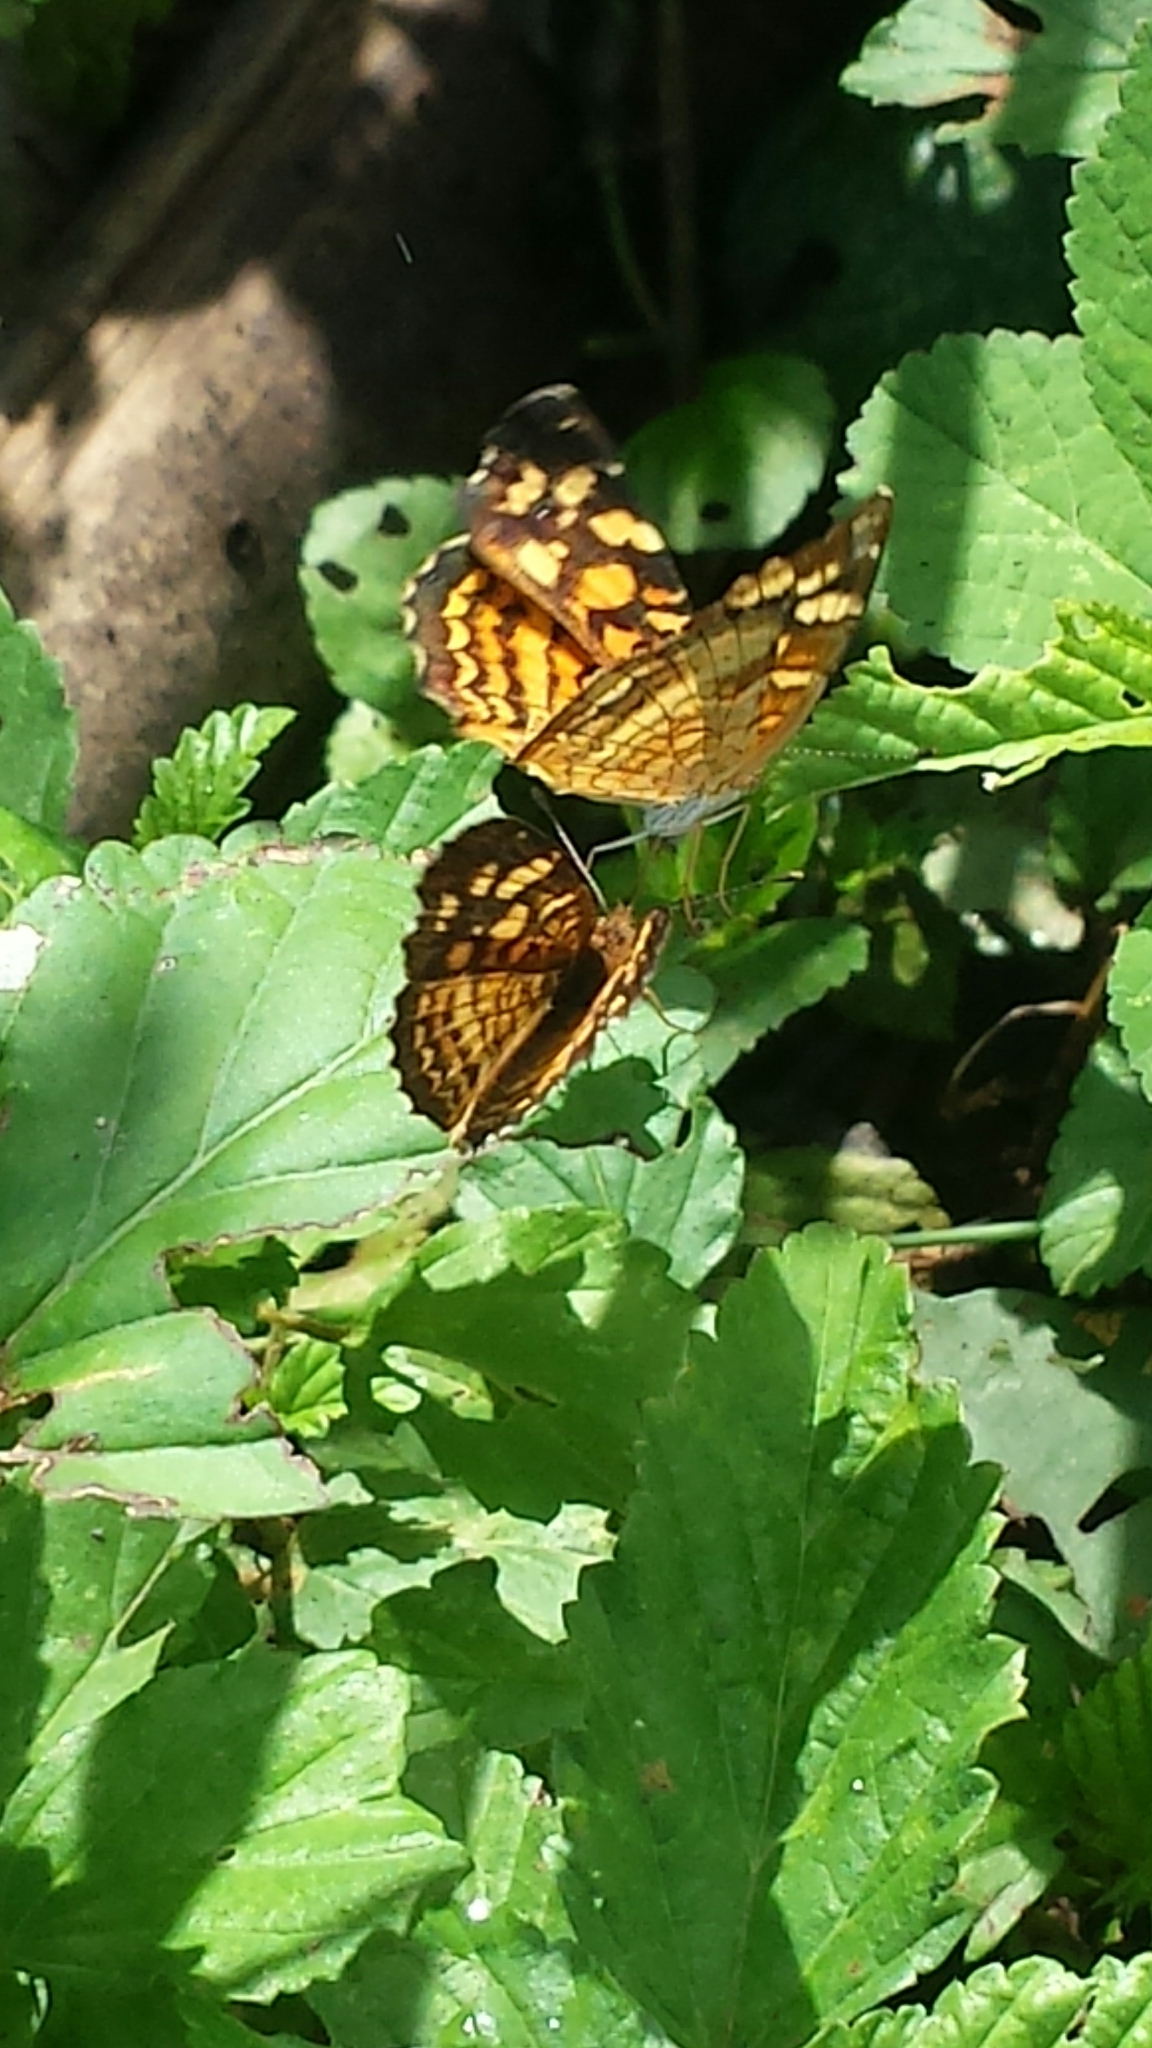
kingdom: Animalia
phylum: Arthropoda
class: Insecta
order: Lepidoptera
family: Nymphalidae
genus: Anthanassa
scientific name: Anthanassa frisia
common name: Cuban crescent
